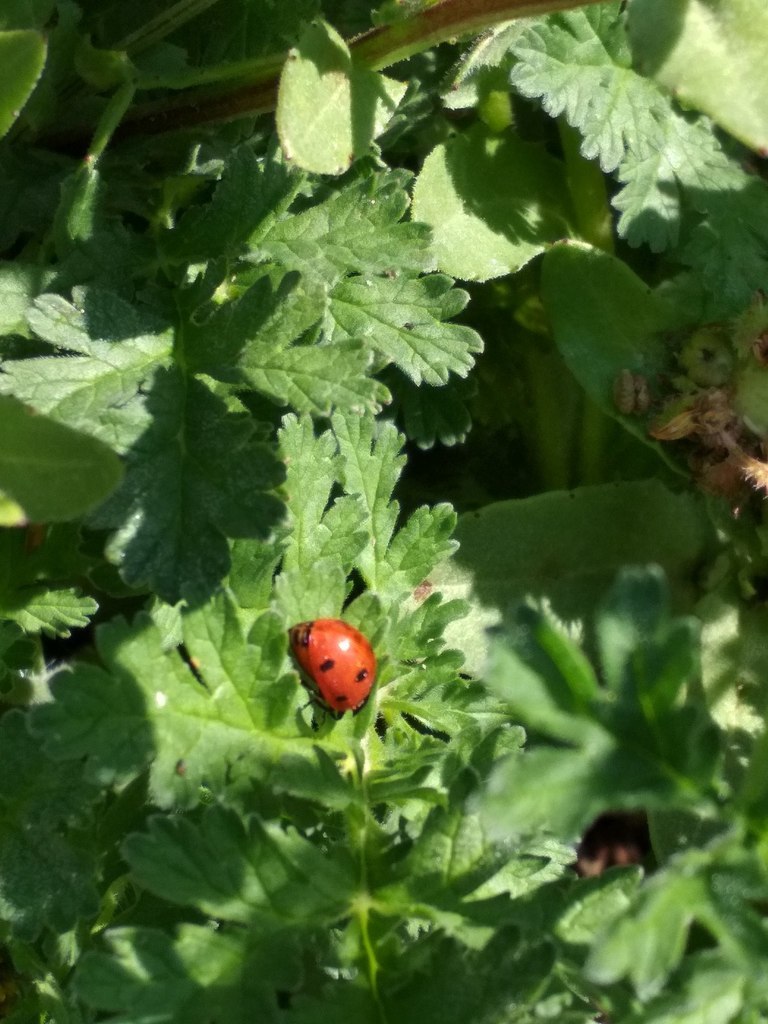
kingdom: Animalia
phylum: Arthropoda
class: Insecta
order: Coleoptera
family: Coccinellidae
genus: Coccinella
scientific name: Coccinella septempunctata
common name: Sevenspotted lady beetle
